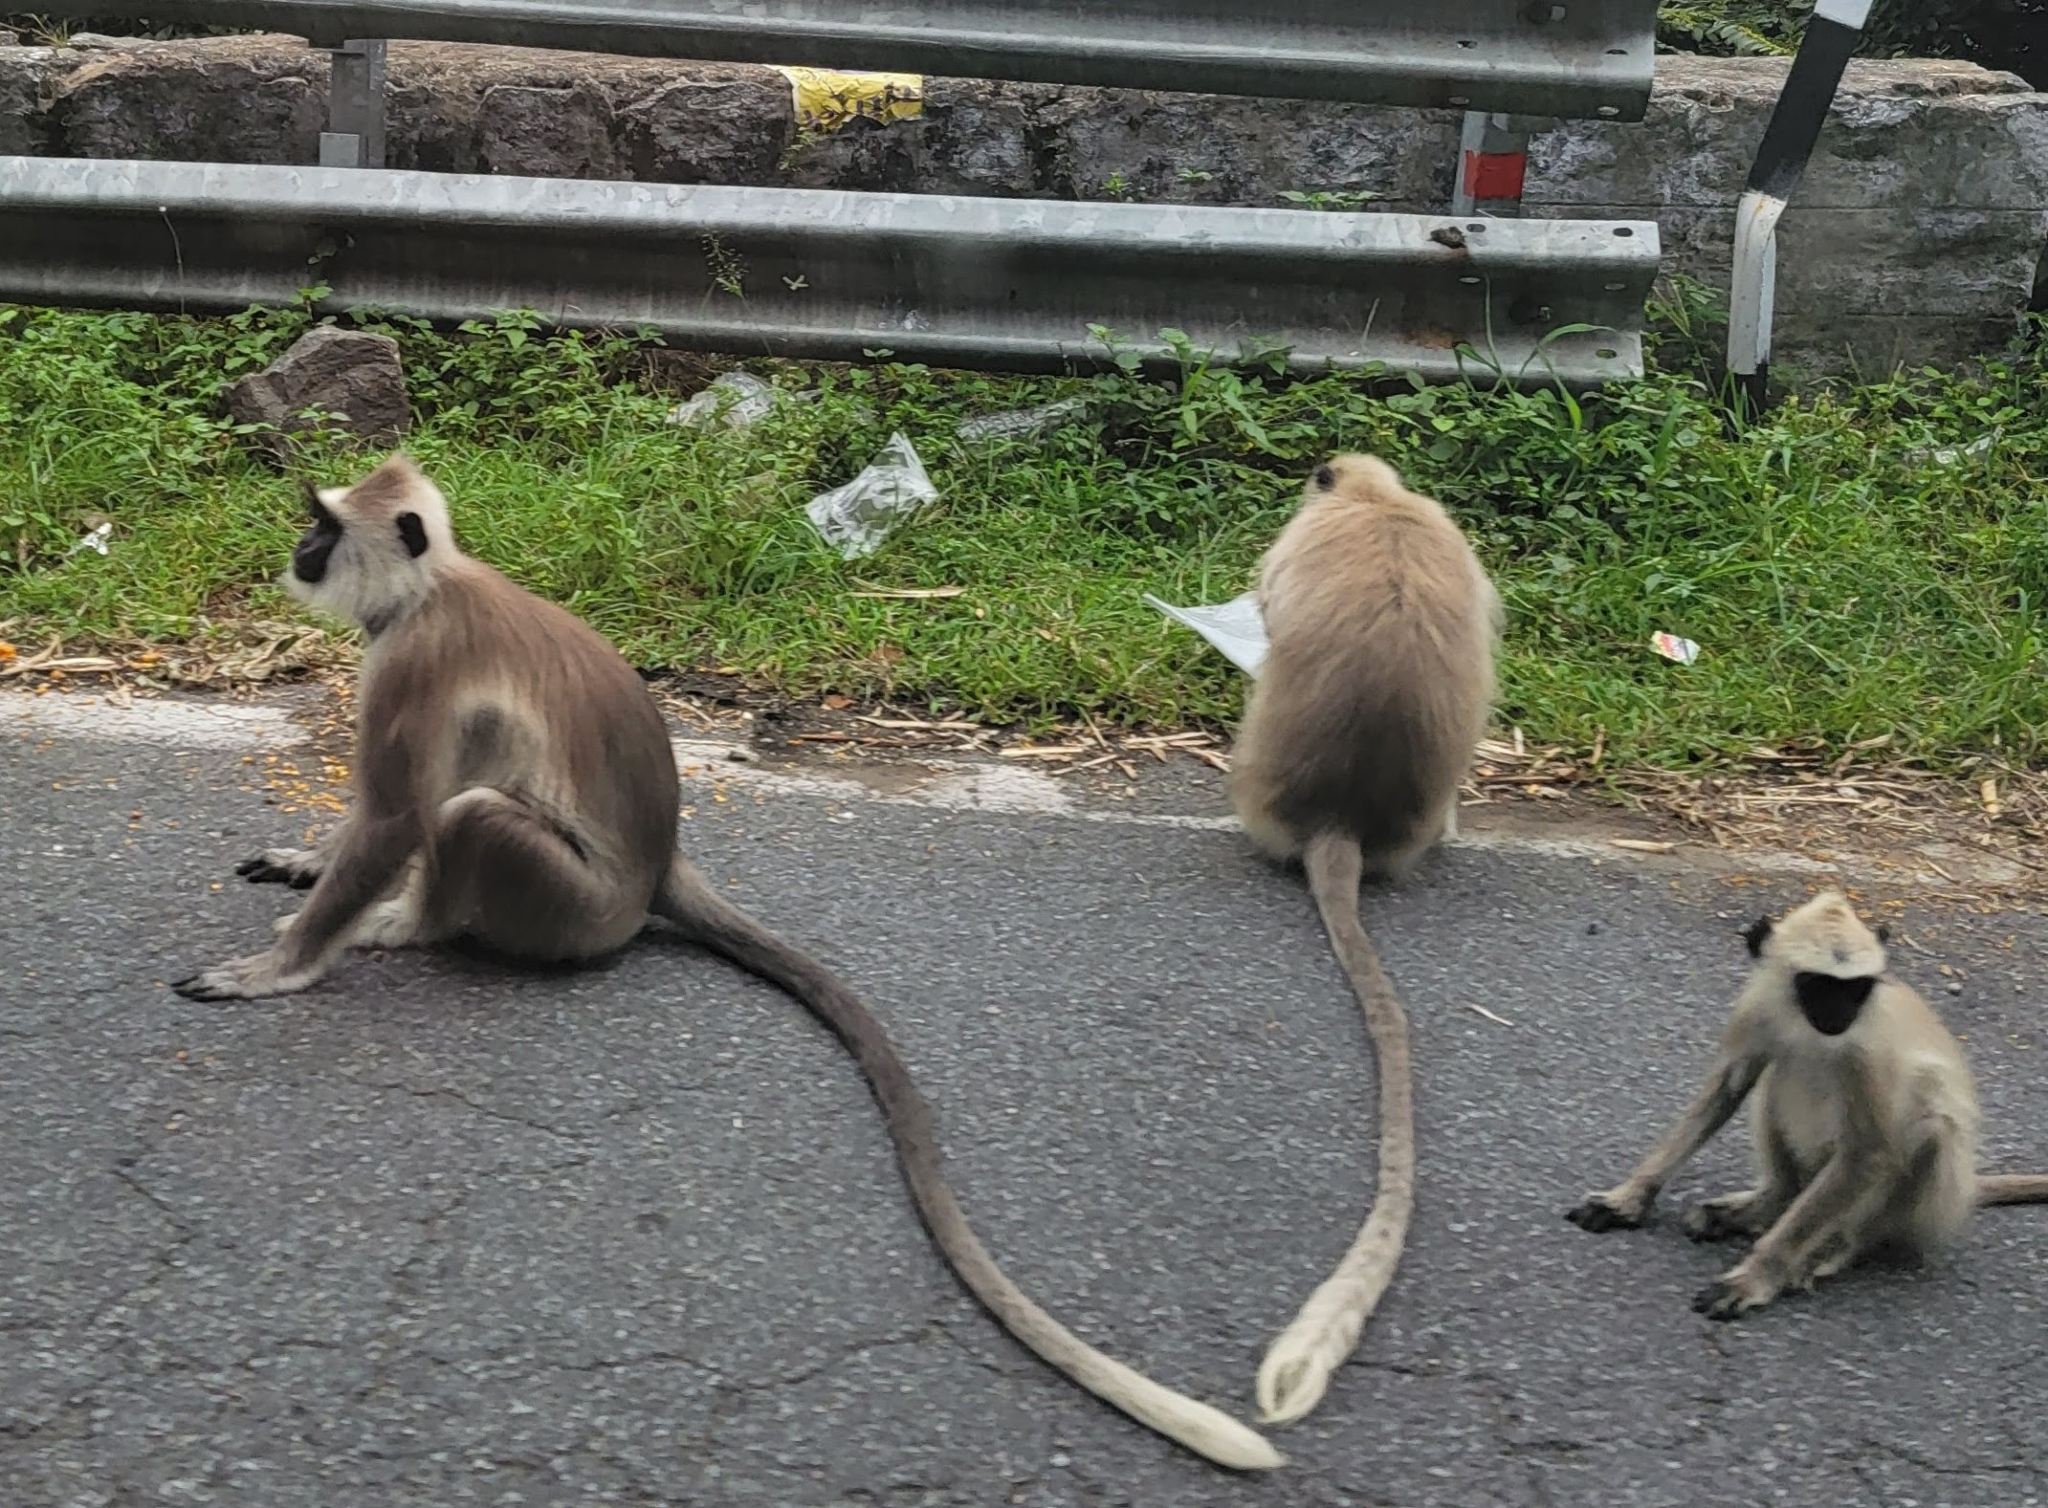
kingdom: Animalia
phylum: Chordata
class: Mammalia
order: Primates
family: Cercopithecidae
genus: Semnopithecus
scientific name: Semnopithecus priam
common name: Tufted gray langur
